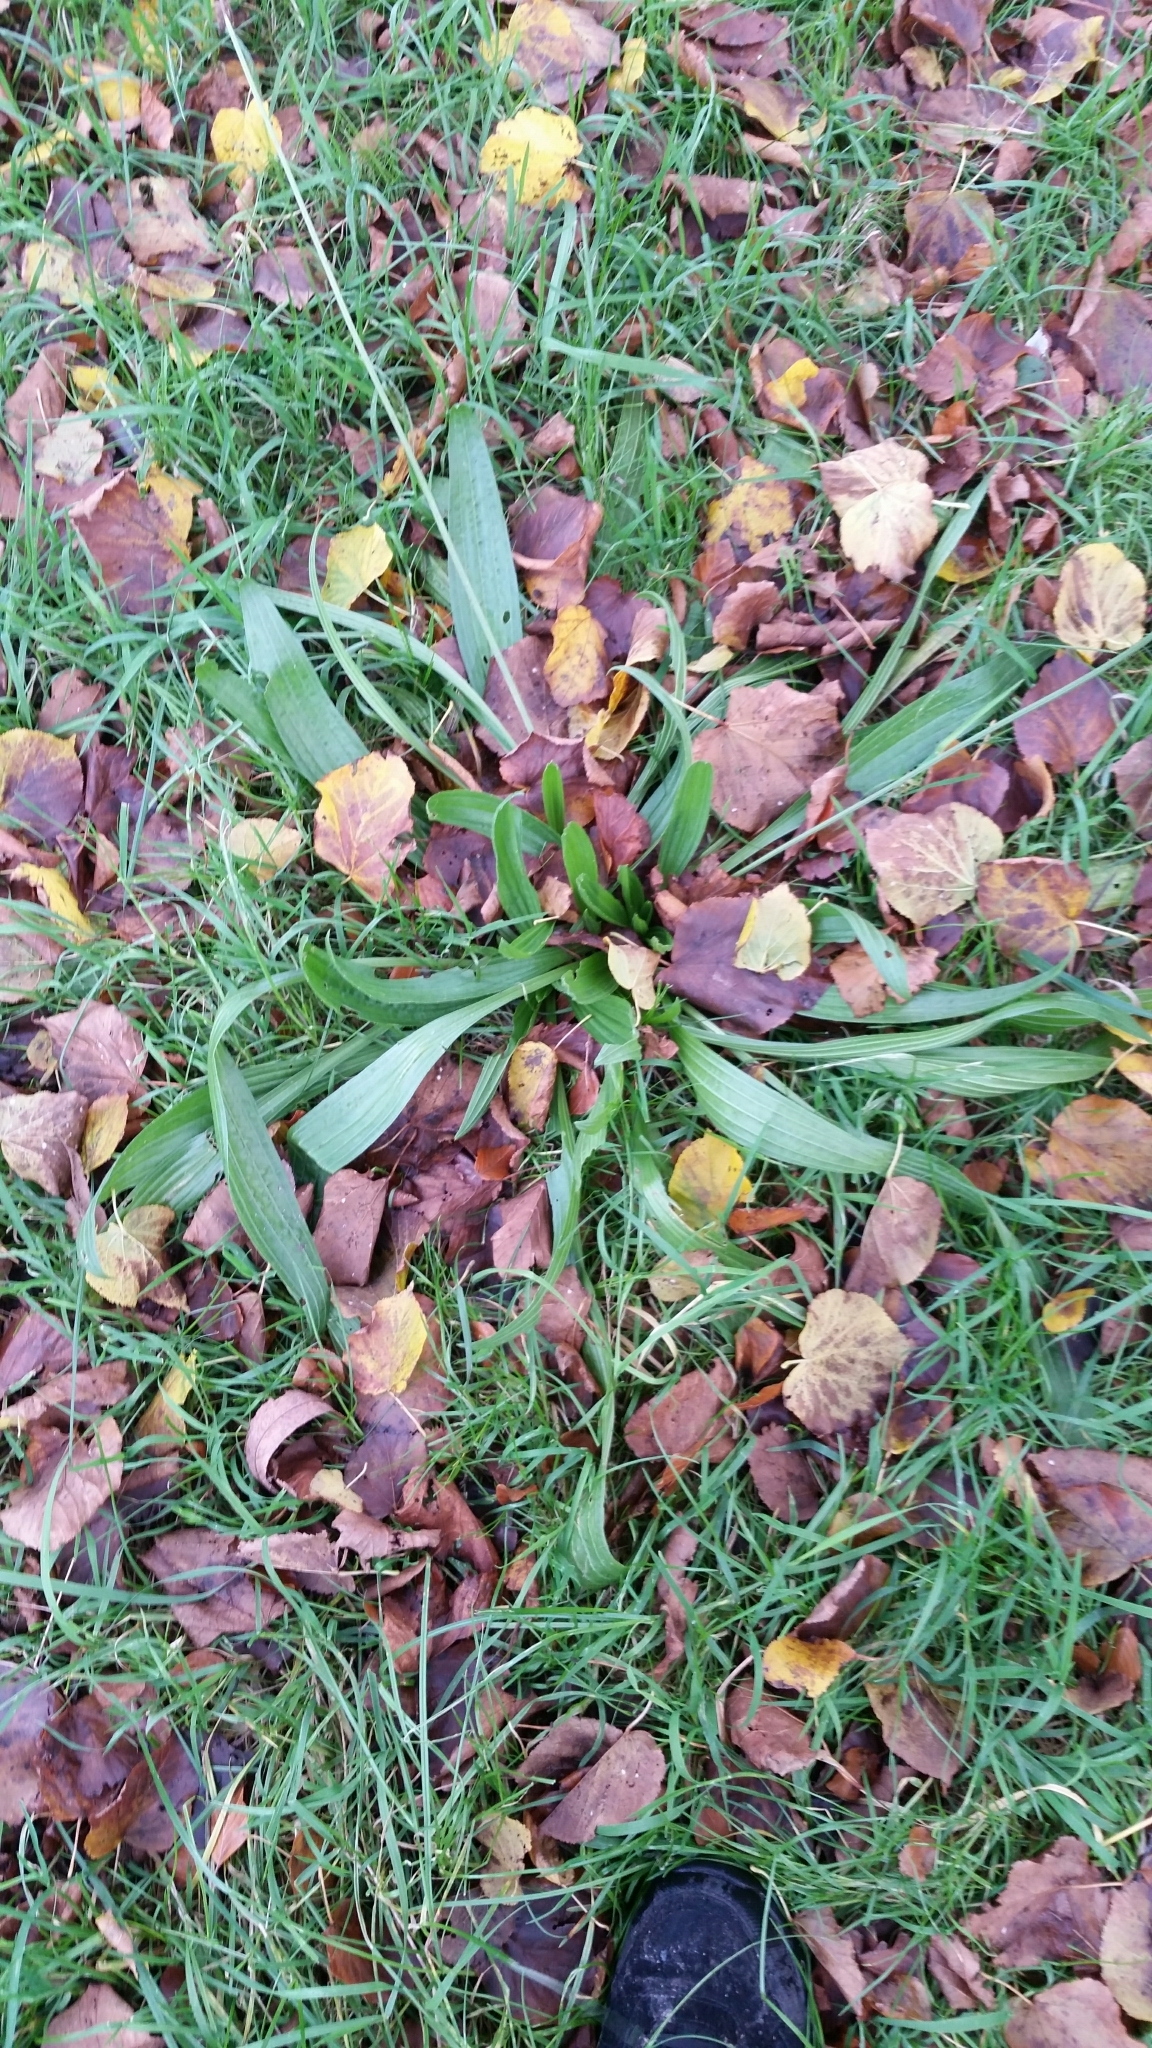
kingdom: Plantae
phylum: Tracheophyta
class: Magnoliopsida
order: Lamiales
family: Plantaginaceae
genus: Plantago
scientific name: Plantago lanceolata
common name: Ribwort plantain
